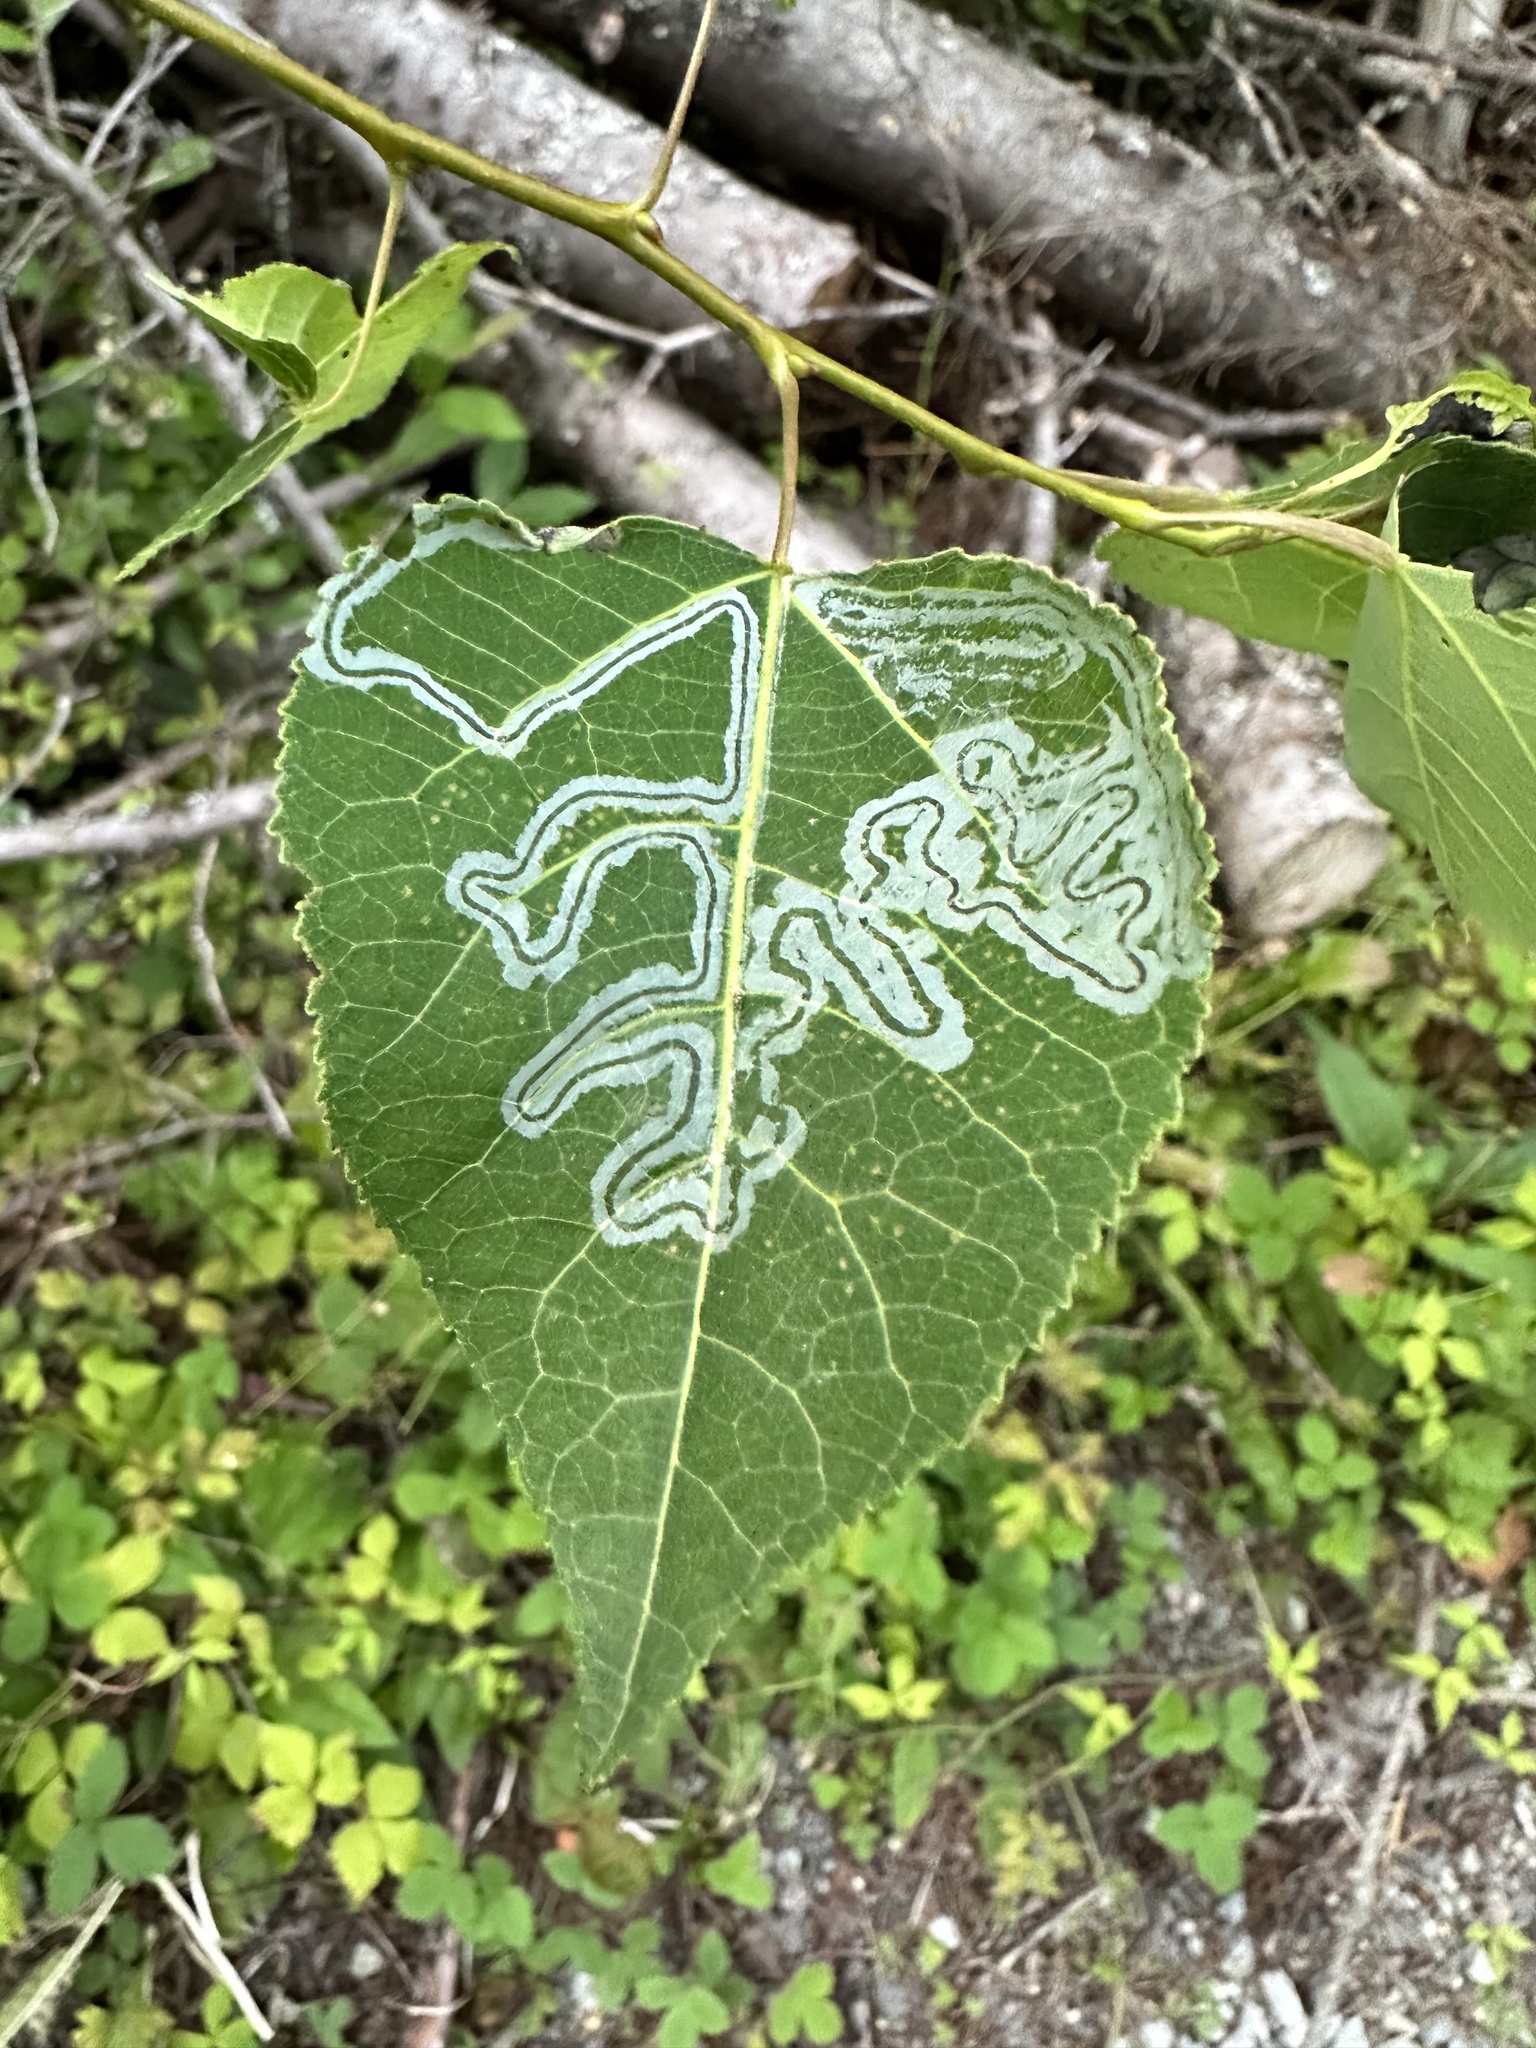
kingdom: Animalia
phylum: Arthropoda
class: Insecta
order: Lepidoptera
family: Gracillariidae
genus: Phyllocnistis
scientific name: Phyllocnistis populiella
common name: Aspen serpentine leafminer moth
